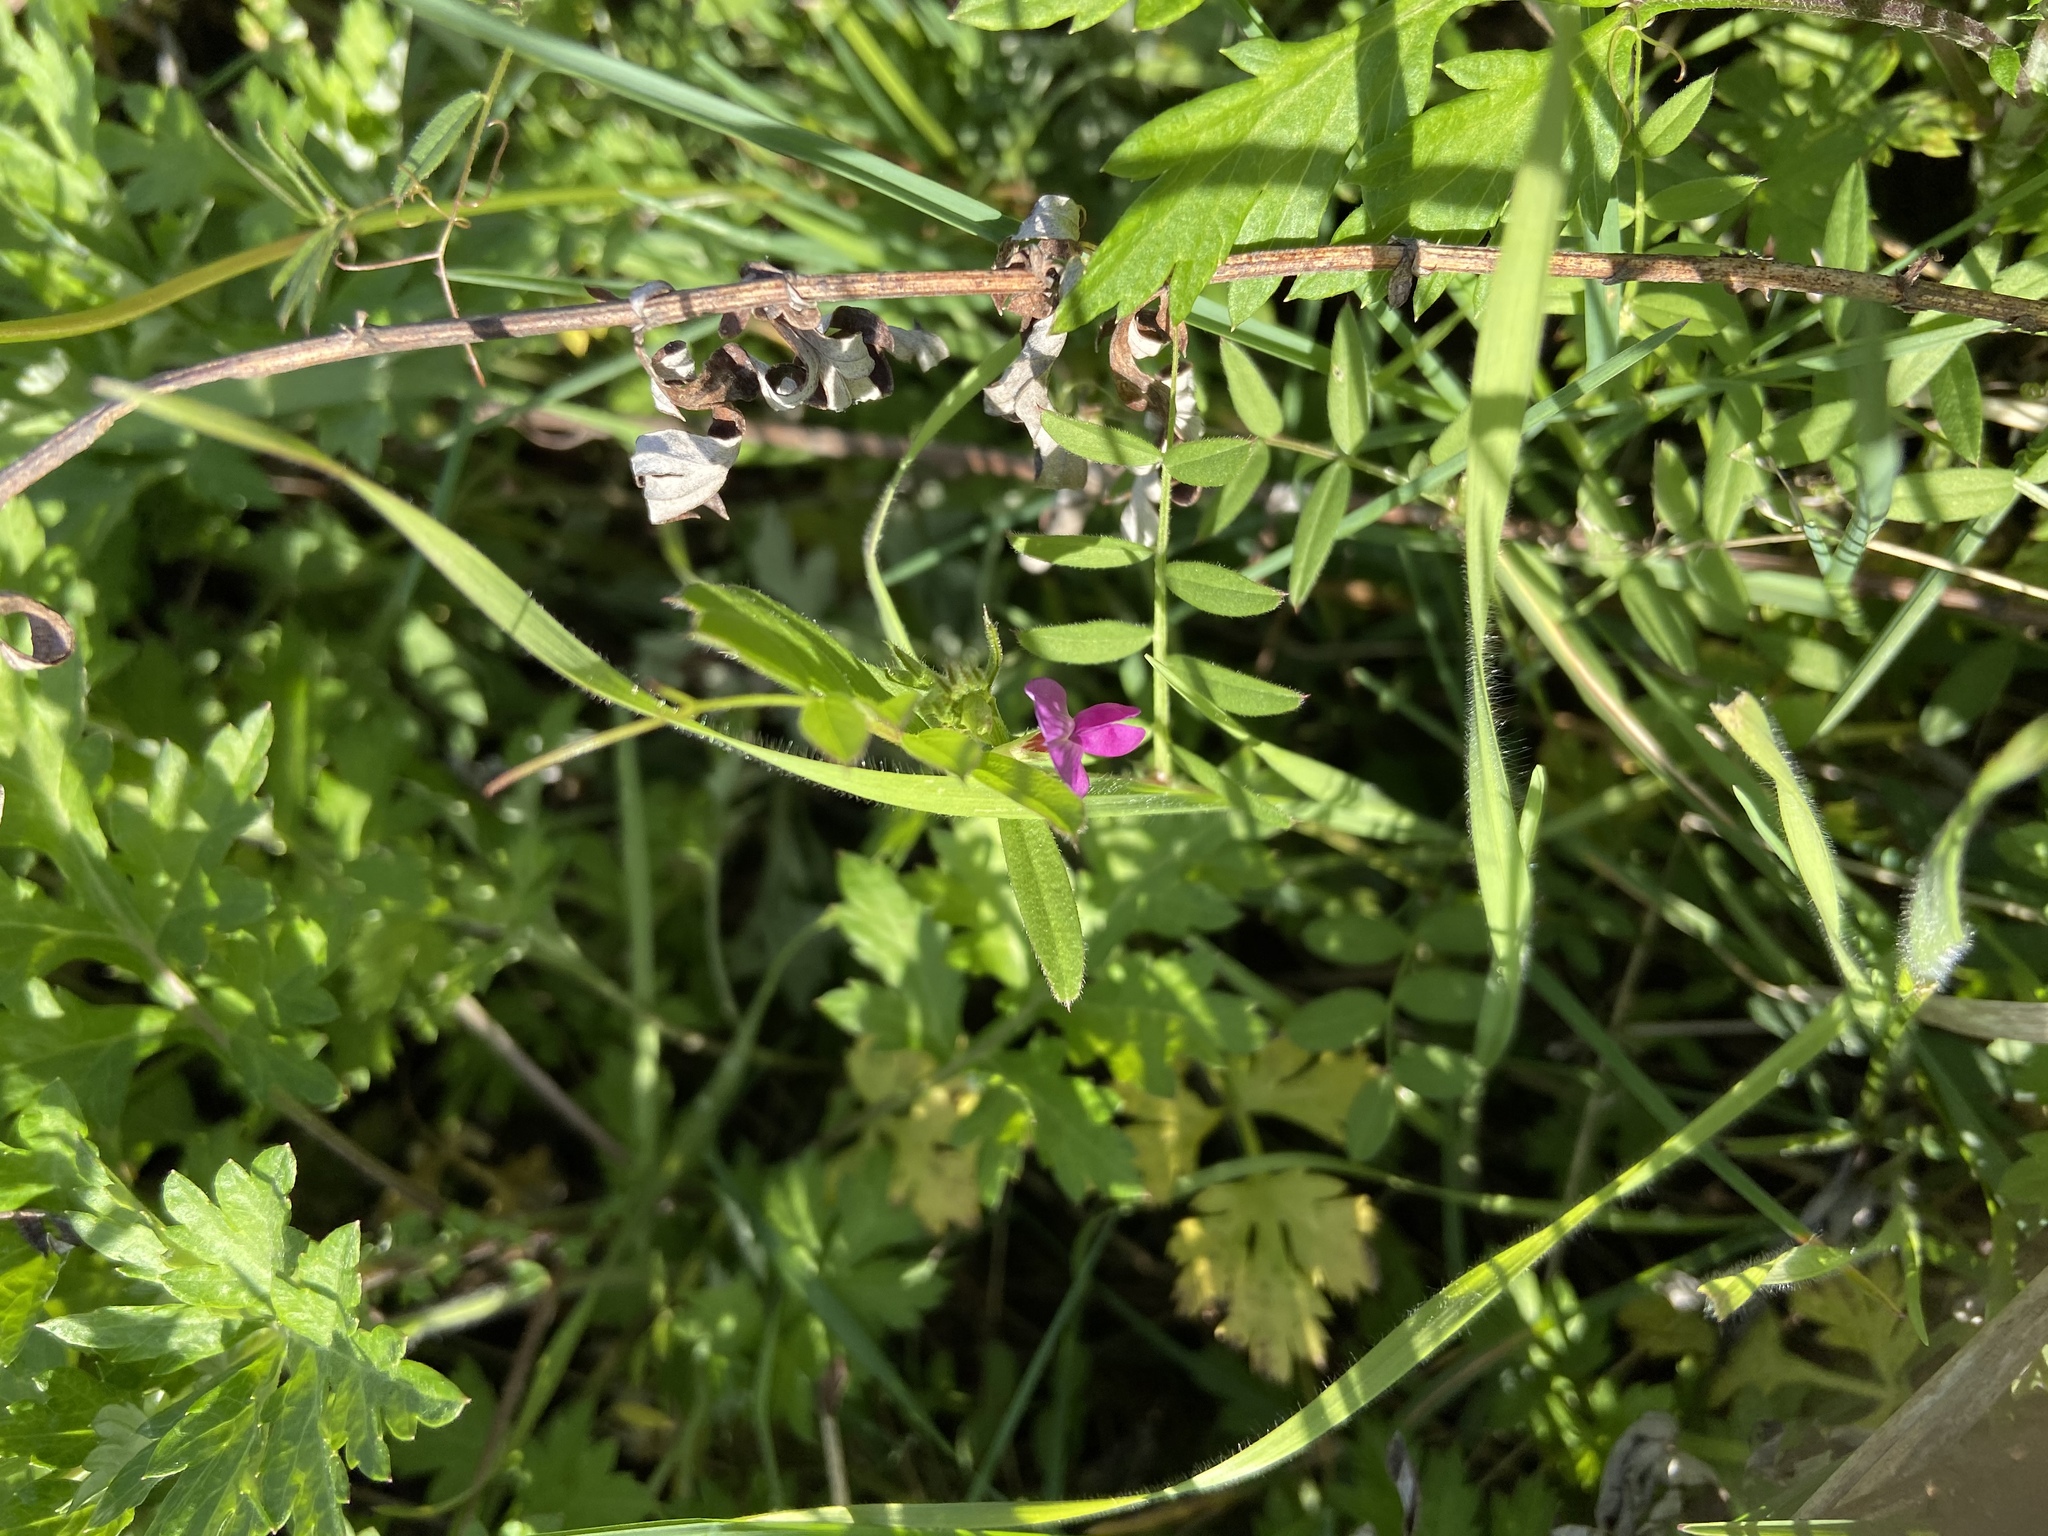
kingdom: Plantae
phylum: Tracheophyta
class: Magnoliopsida
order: Fabales
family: Fabaceae
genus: Vicia
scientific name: Vicia sativa
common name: Garden vetch
